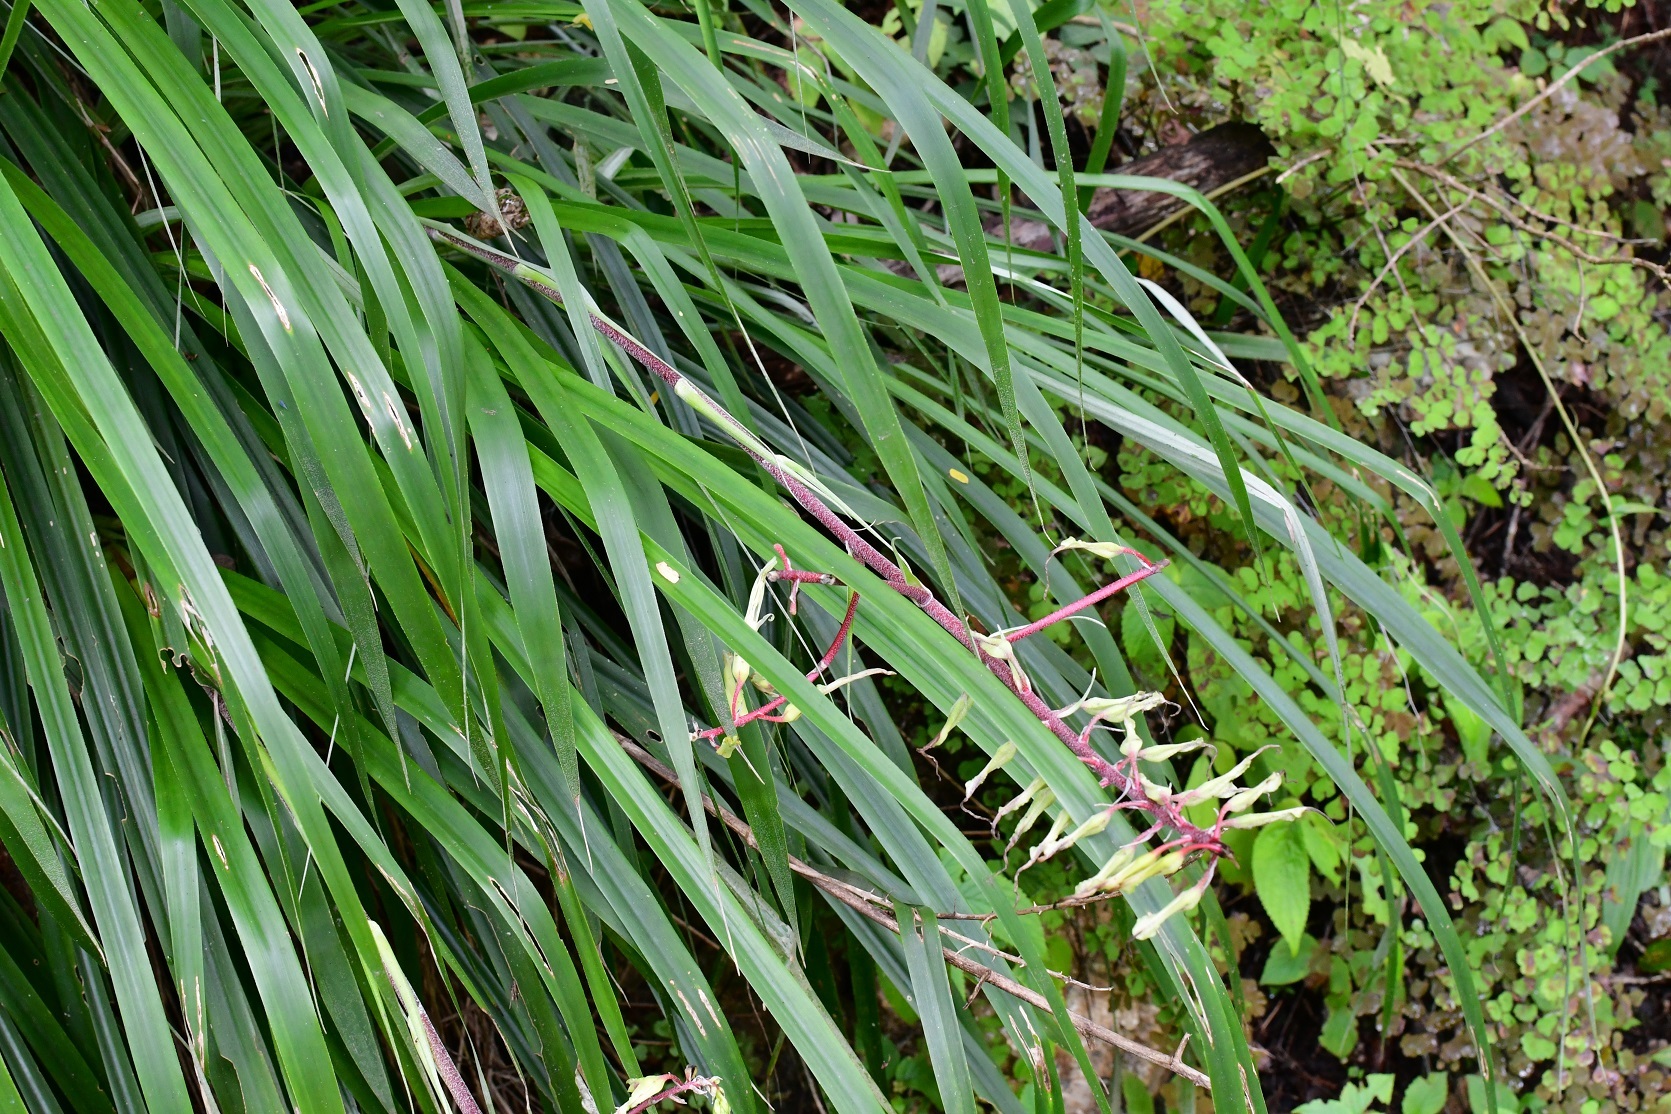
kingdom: Plantae
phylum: Tracheophyta
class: Liliopsida
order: Poales
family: Bromeliaceae
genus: Pitcairnia
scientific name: Pitcairnia breedlovei
